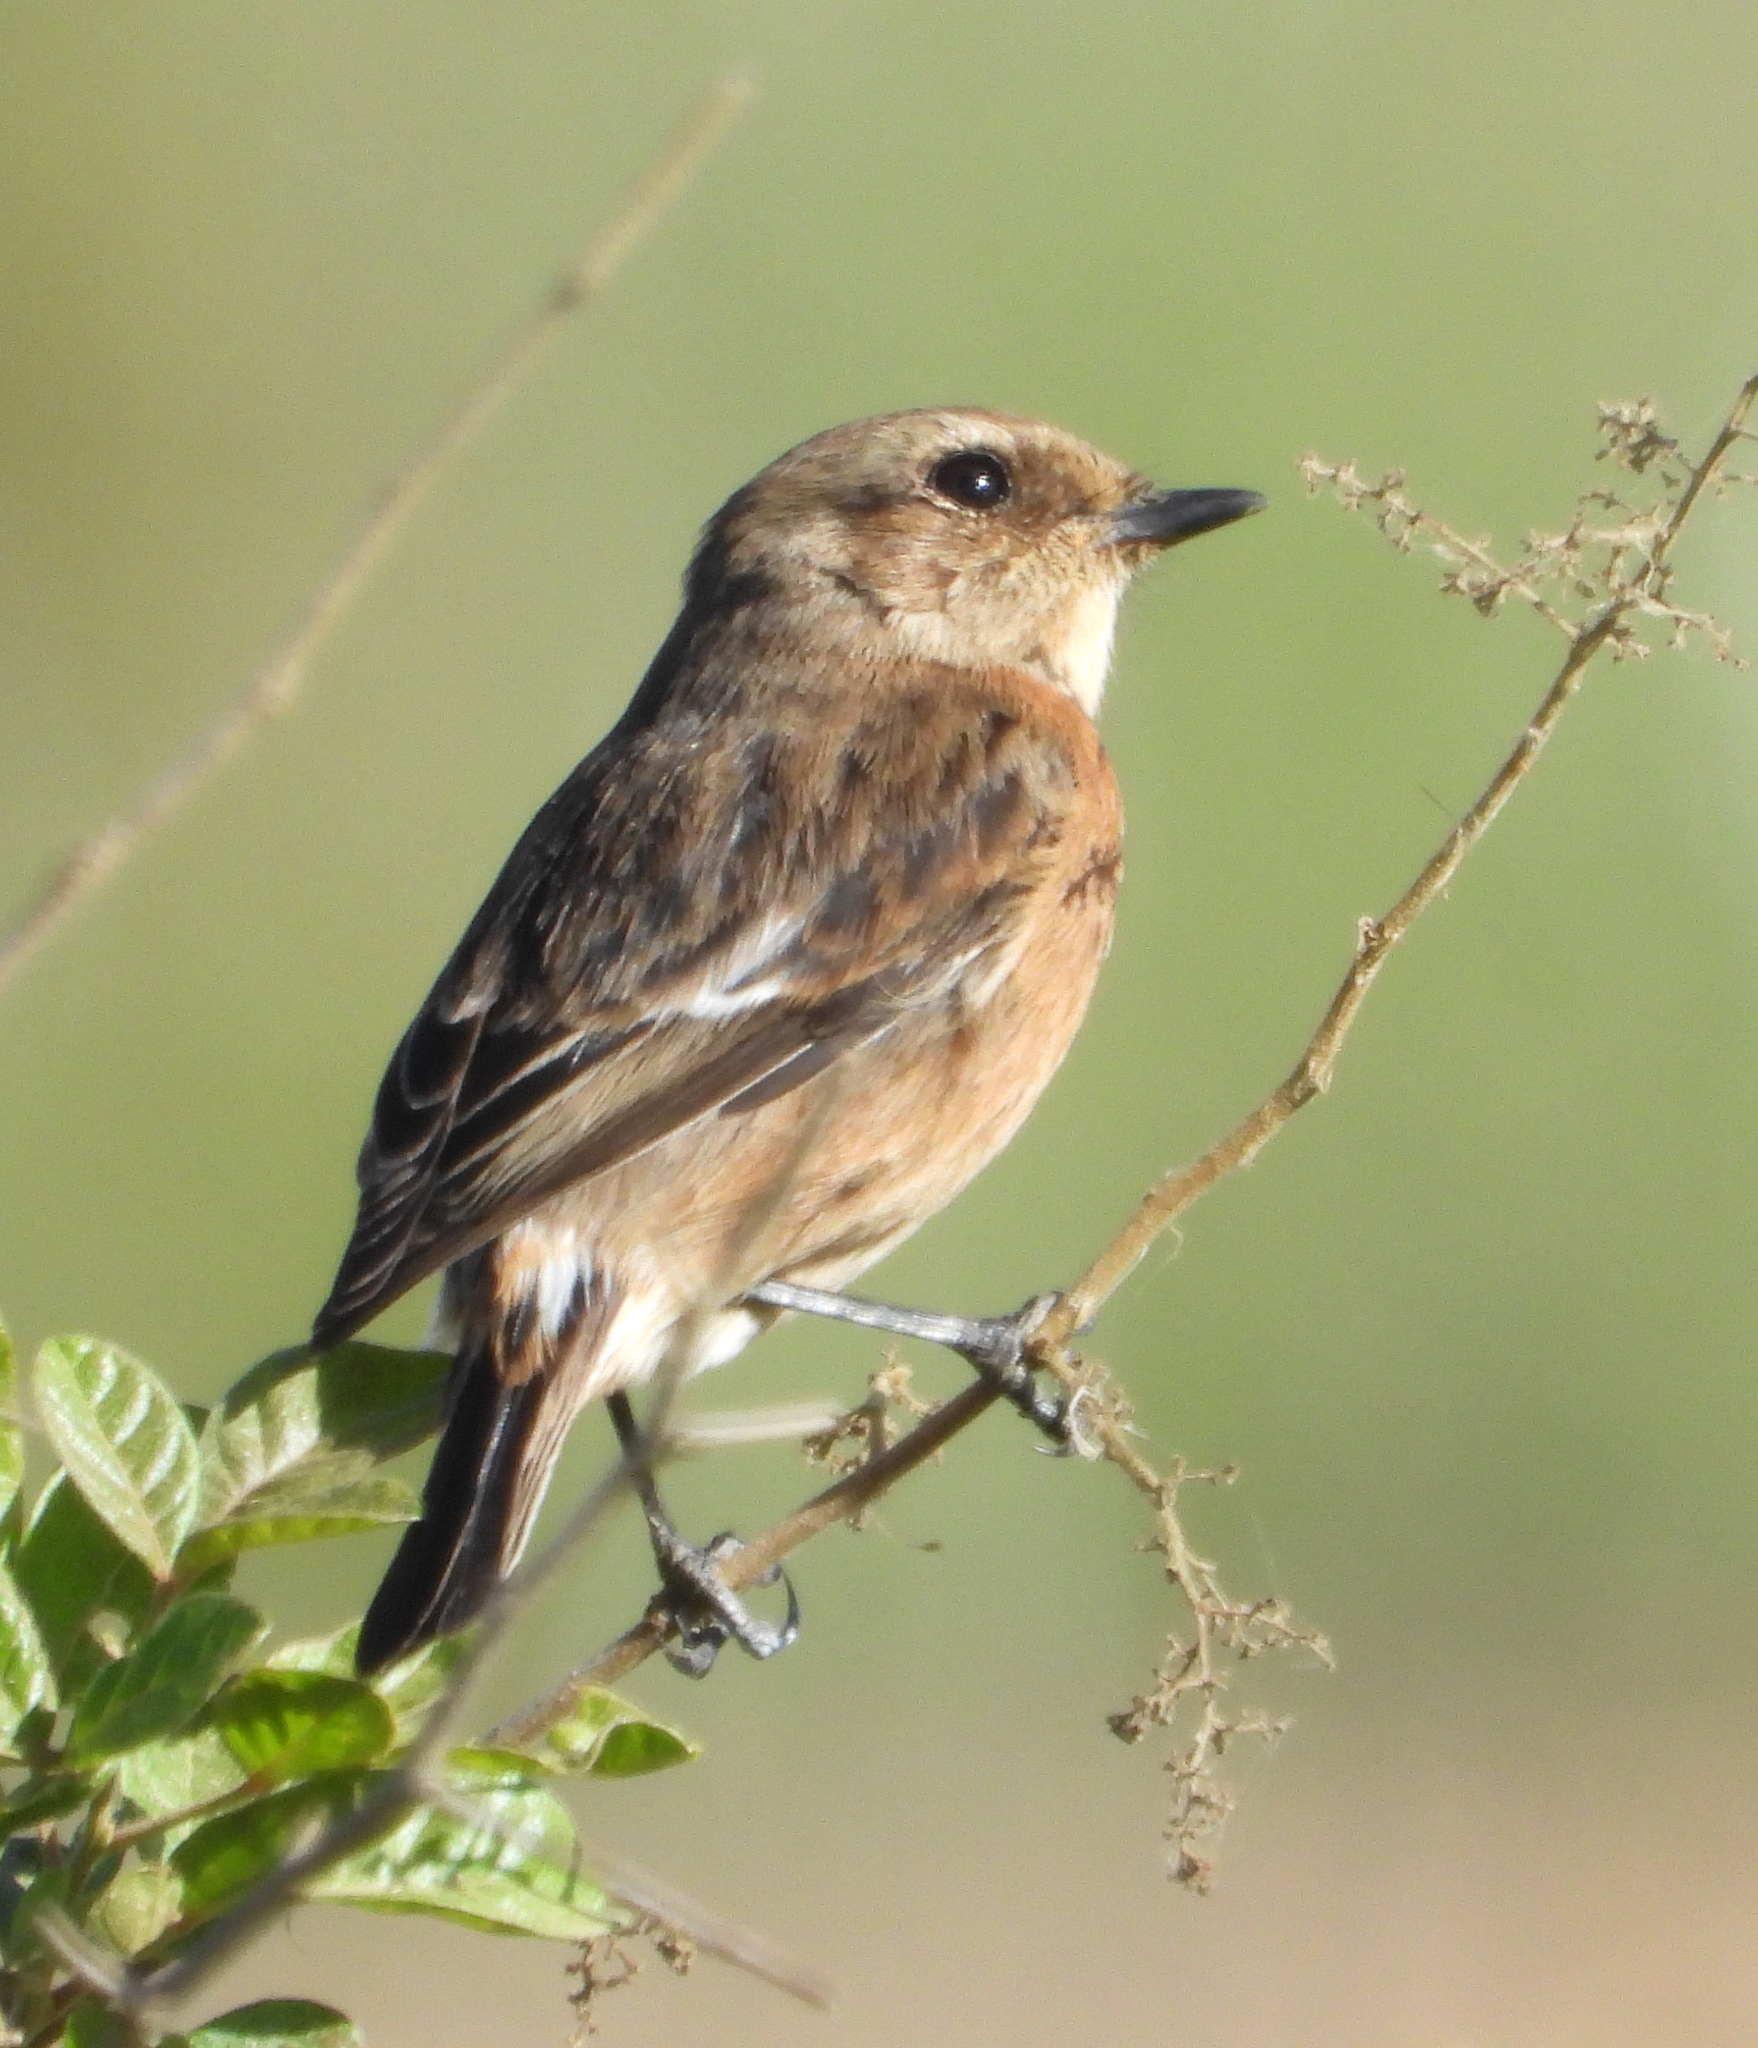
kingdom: Animalia
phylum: Chordata
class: Aves
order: Passeriformes
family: Muscicapidae
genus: Saxicola
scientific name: Saxicola torquatus
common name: African stonechat
